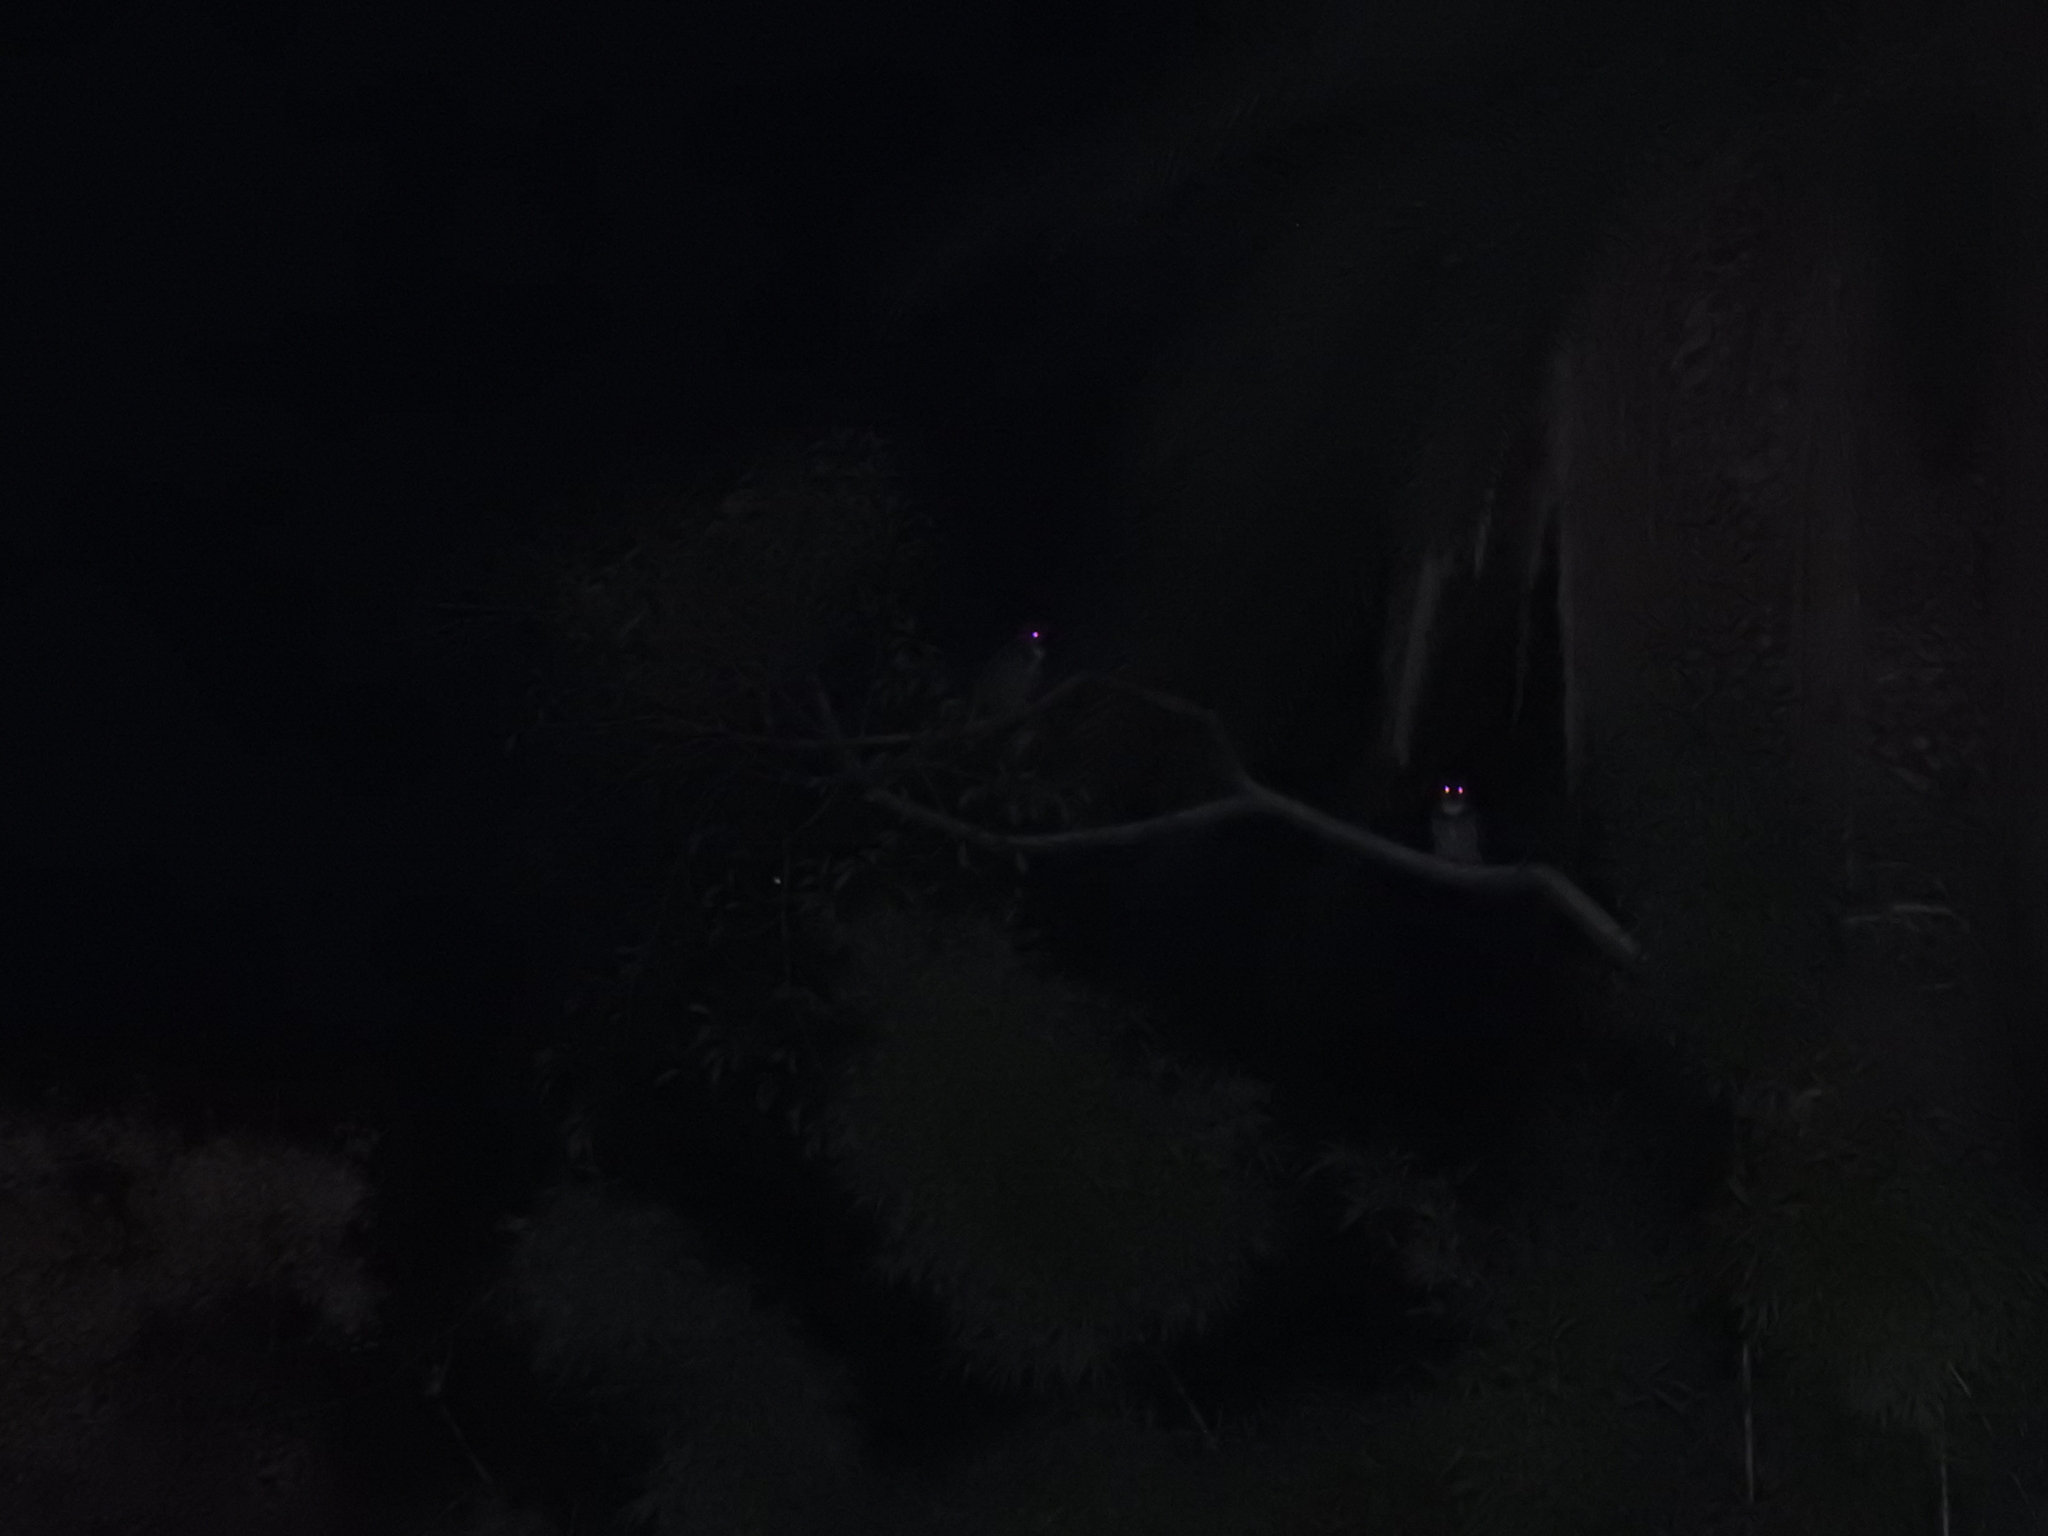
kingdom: Animalia
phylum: Chordata
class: Aves
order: Strigiformes
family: Strigidae
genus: Bubo
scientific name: Bubo virginianus
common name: Great horned owl
